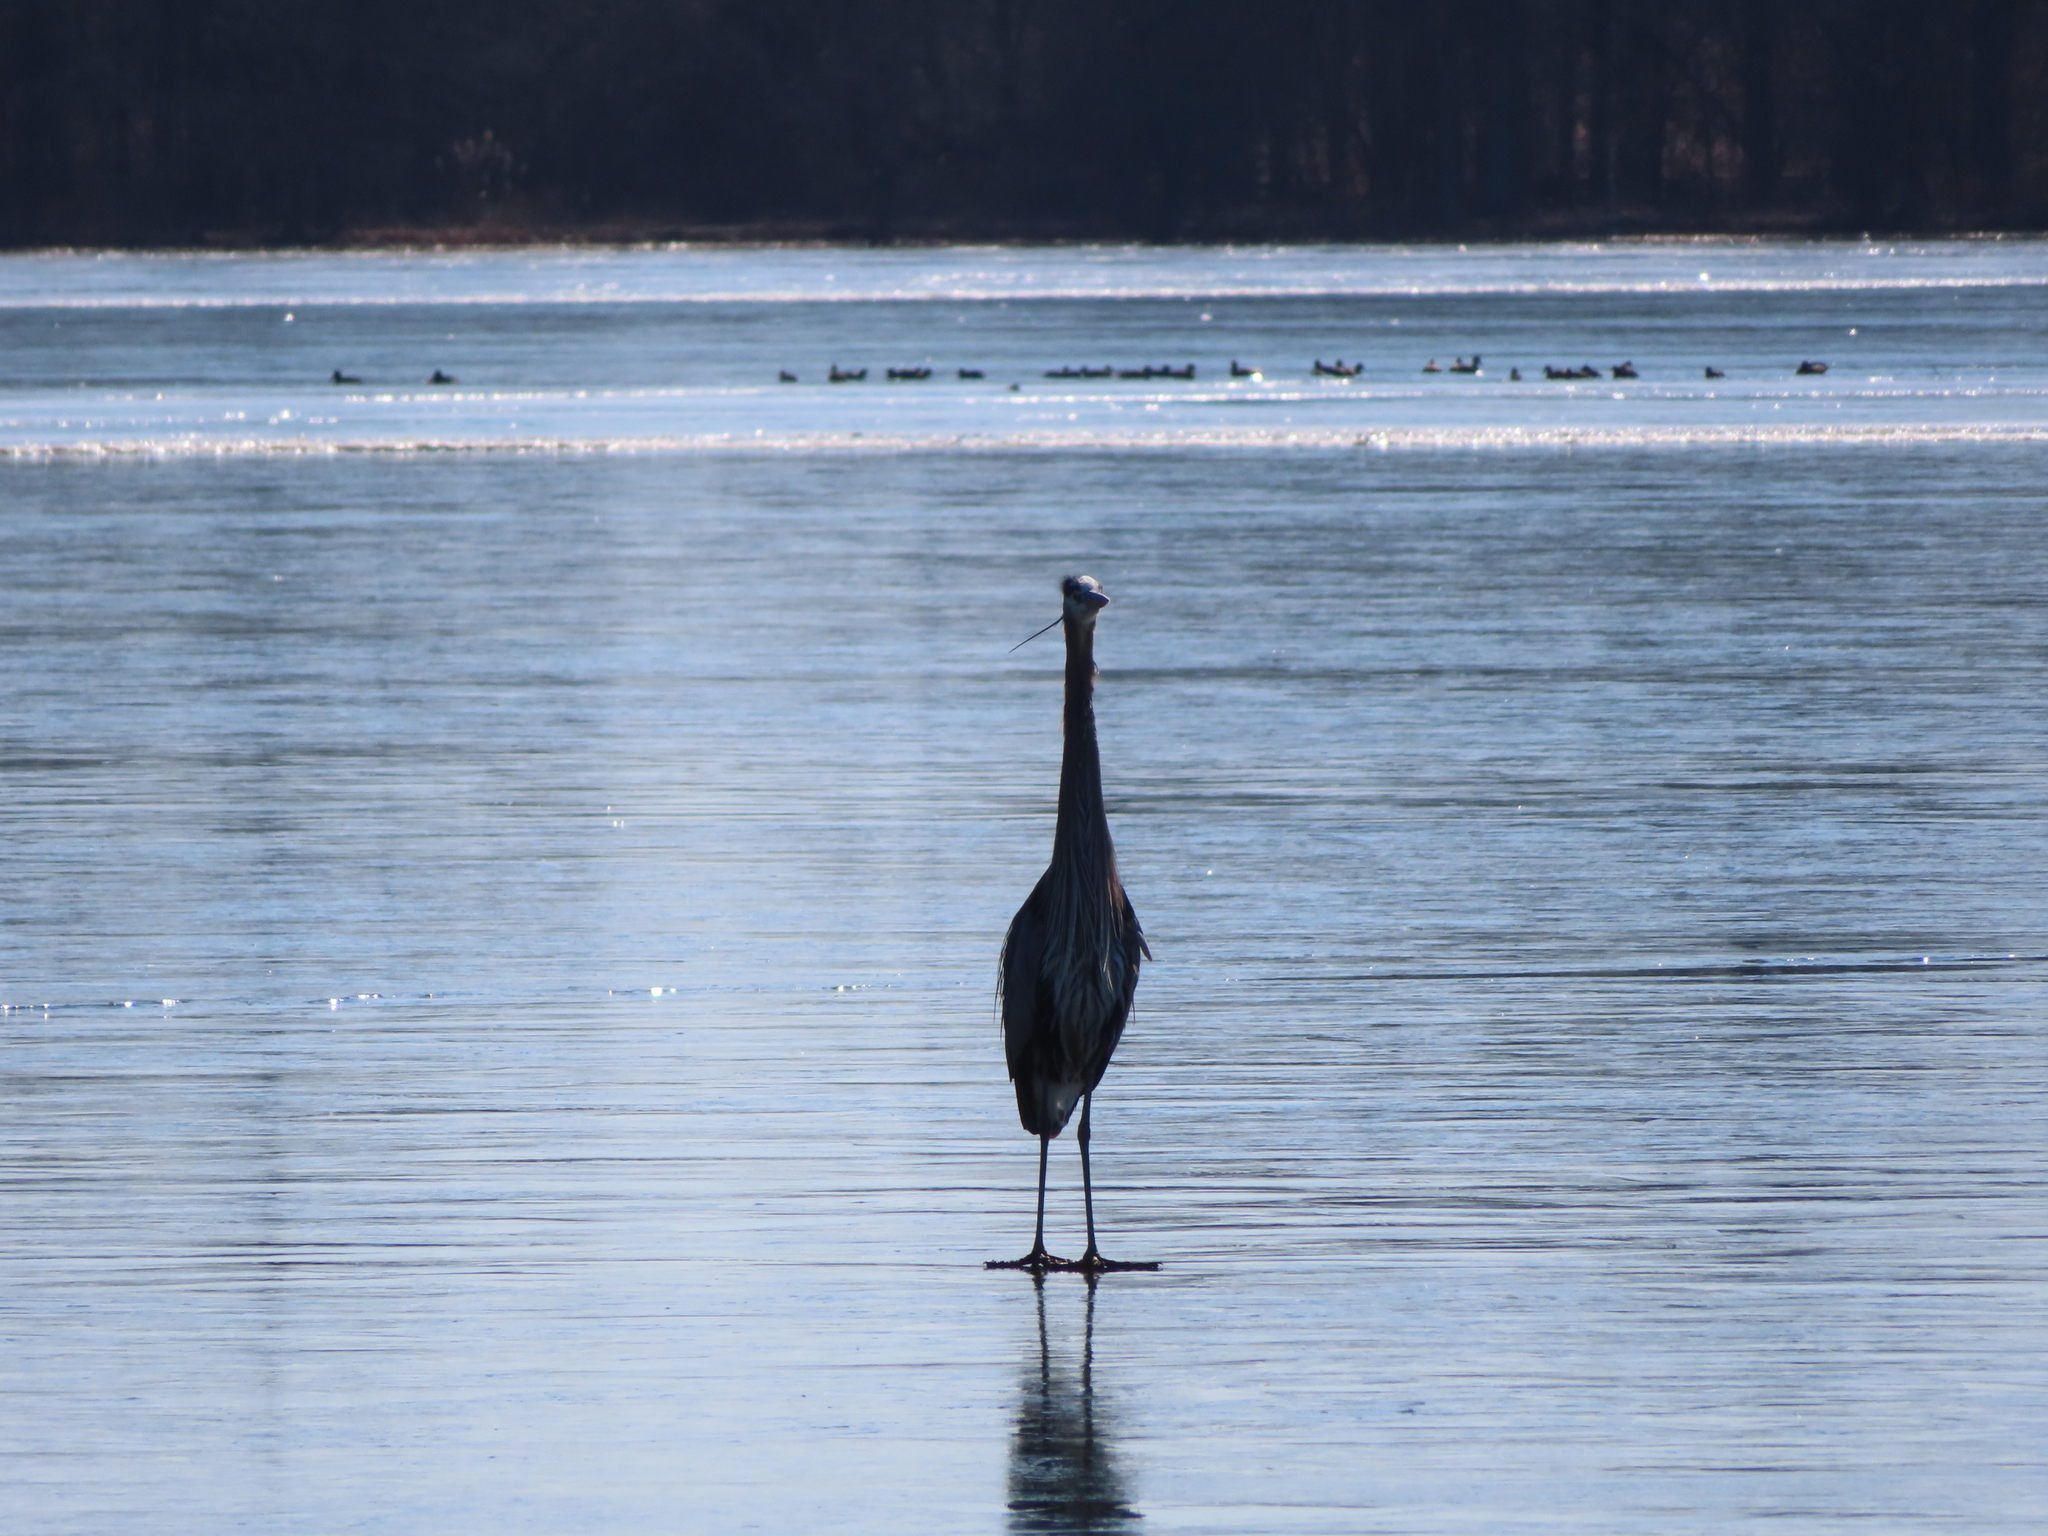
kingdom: Animalia
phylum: Chordata
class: Aves
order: Pelecaniformes
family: Ardeidae
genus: Ardea
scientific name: Ardea herodias
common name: Great blue heron
